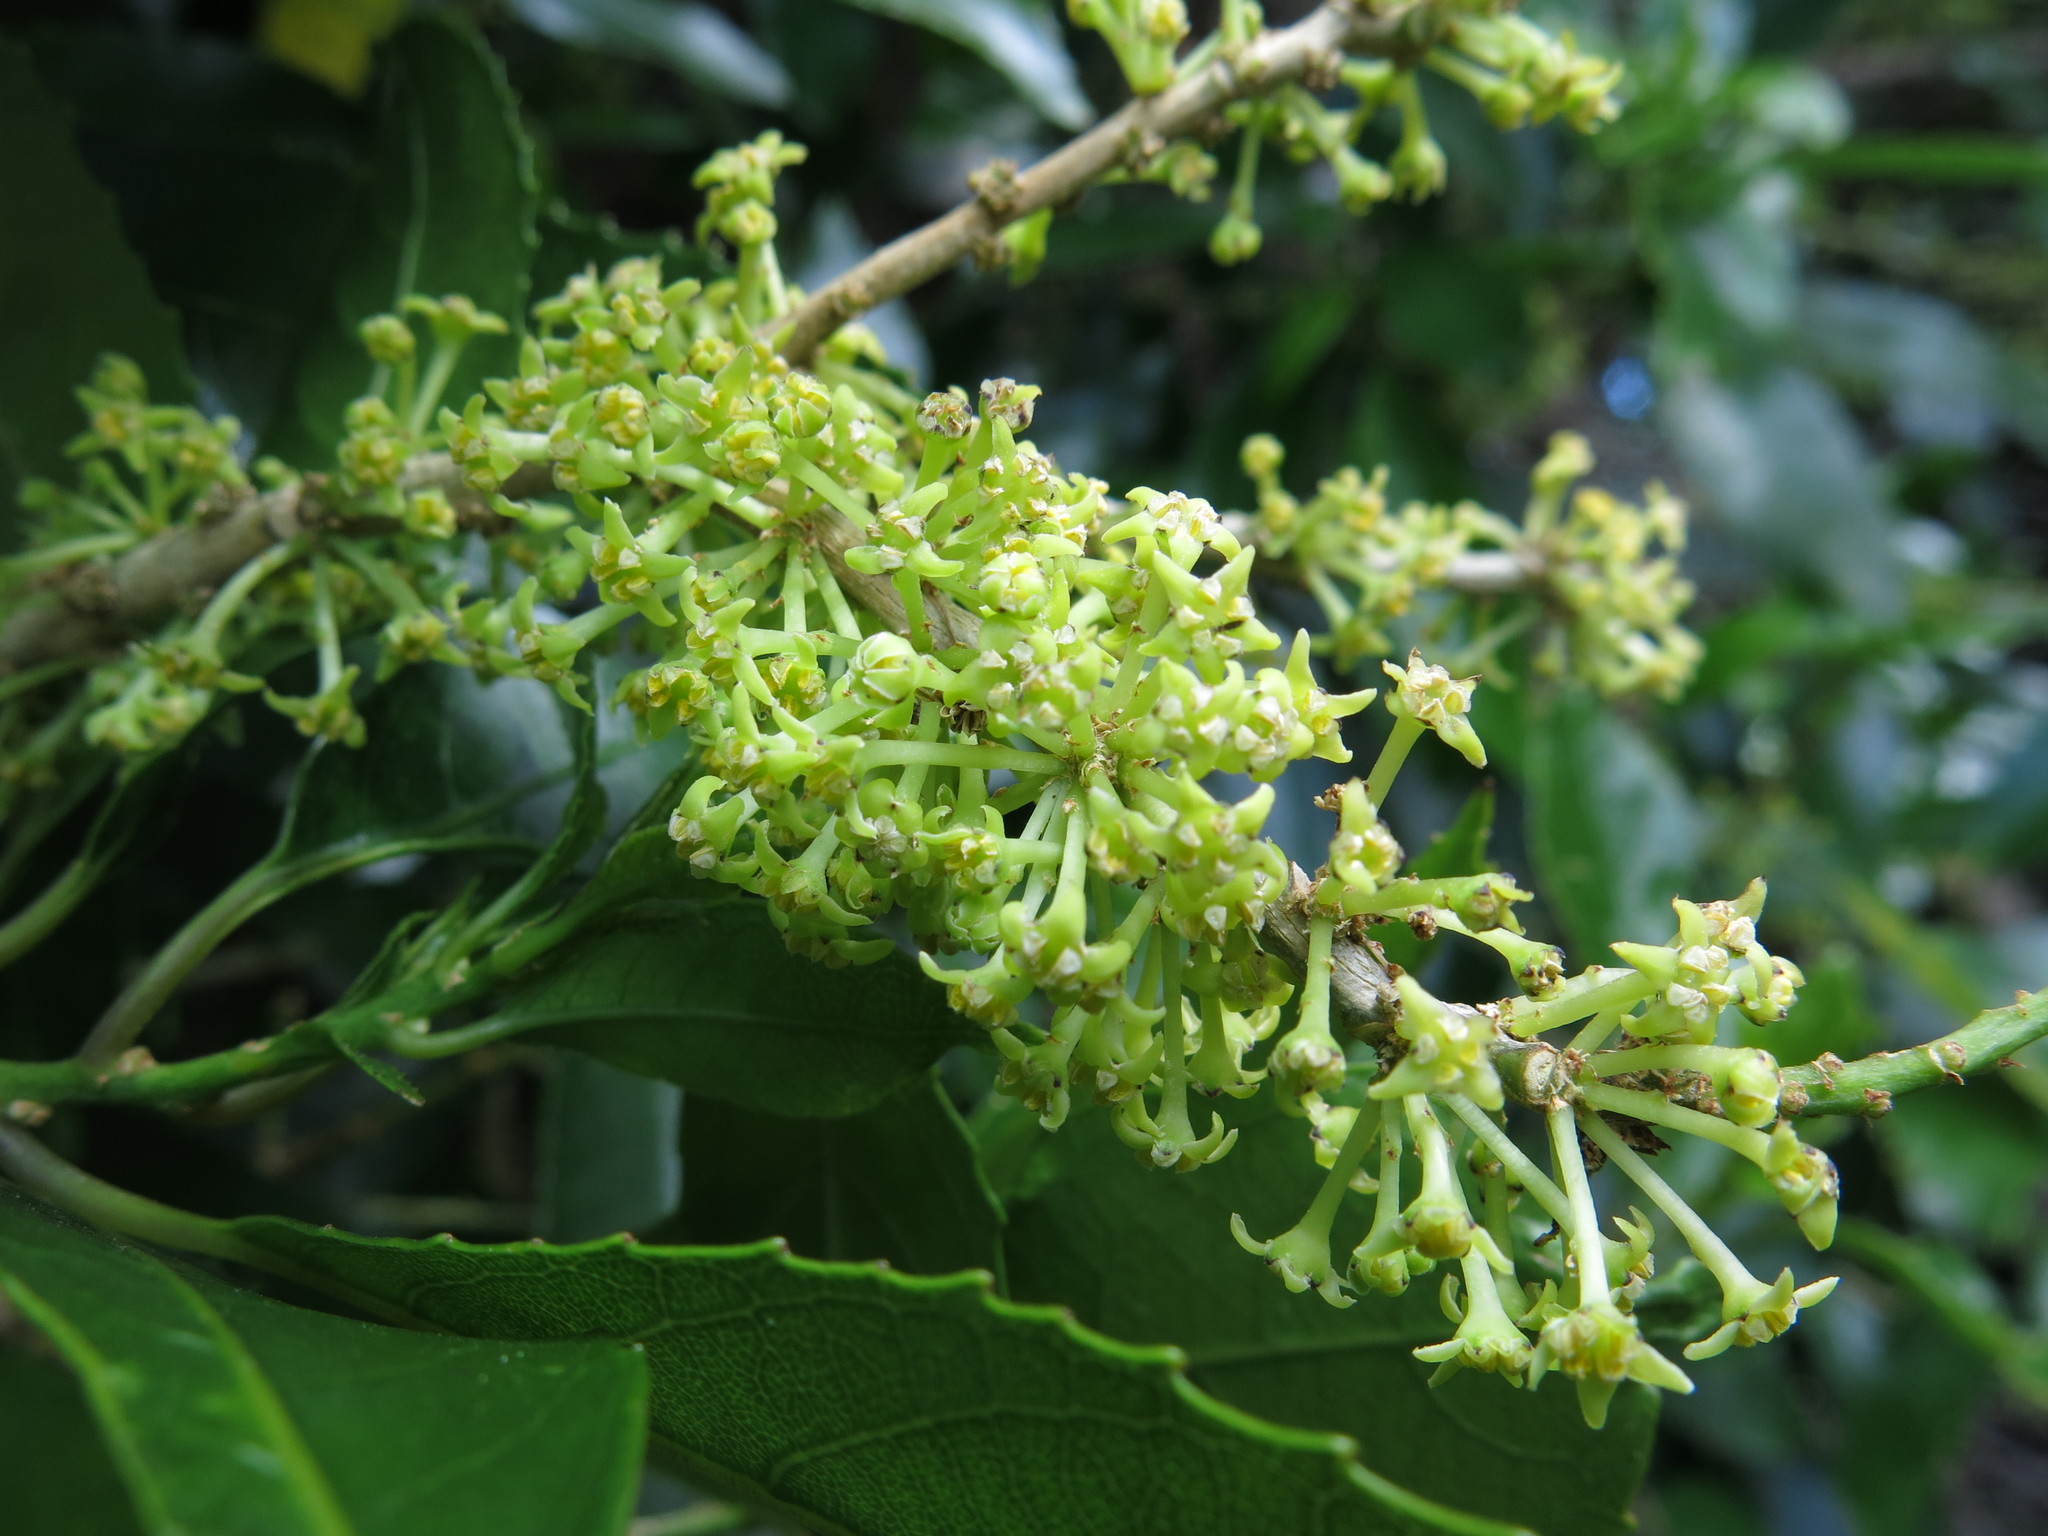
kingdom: Plantae
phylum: Tracheophyta
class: Magnoliopsida
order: Malpighiales
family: Violaceae
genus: Melicytus
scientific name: Melicytus ramiflorus
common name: Mahoe
